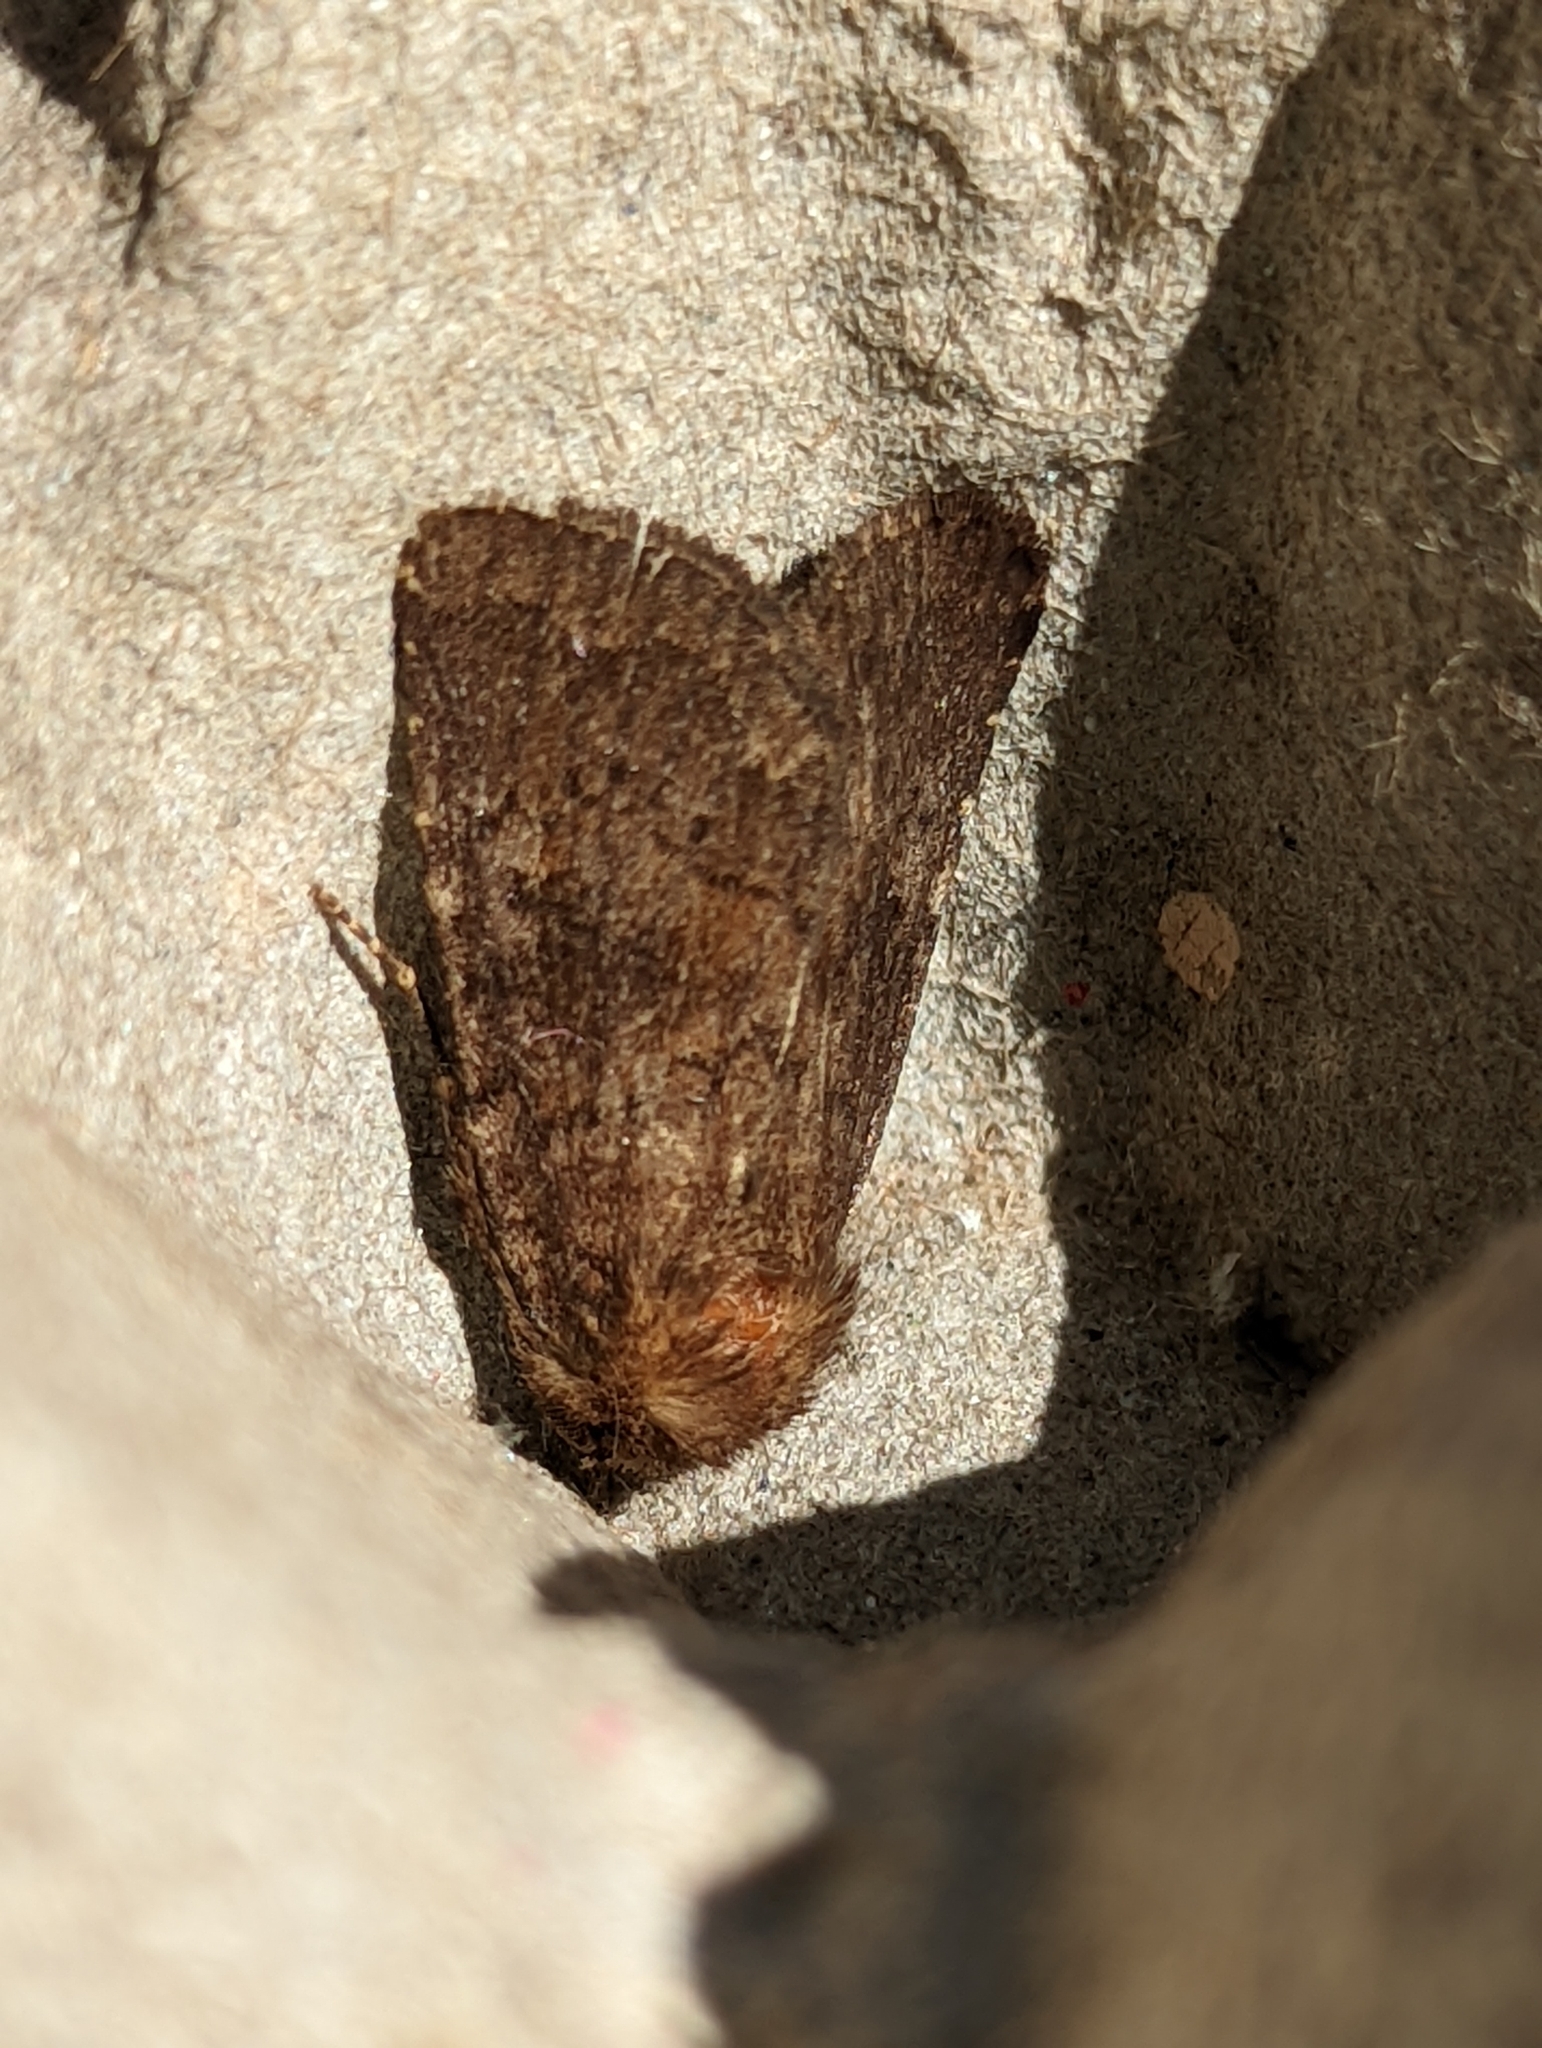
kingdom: Animalia
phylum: Arthropoda
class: Insecta
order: Lepidoptera
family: Noctuidae
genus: Charanyca
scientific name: Charanyca ferruginea
